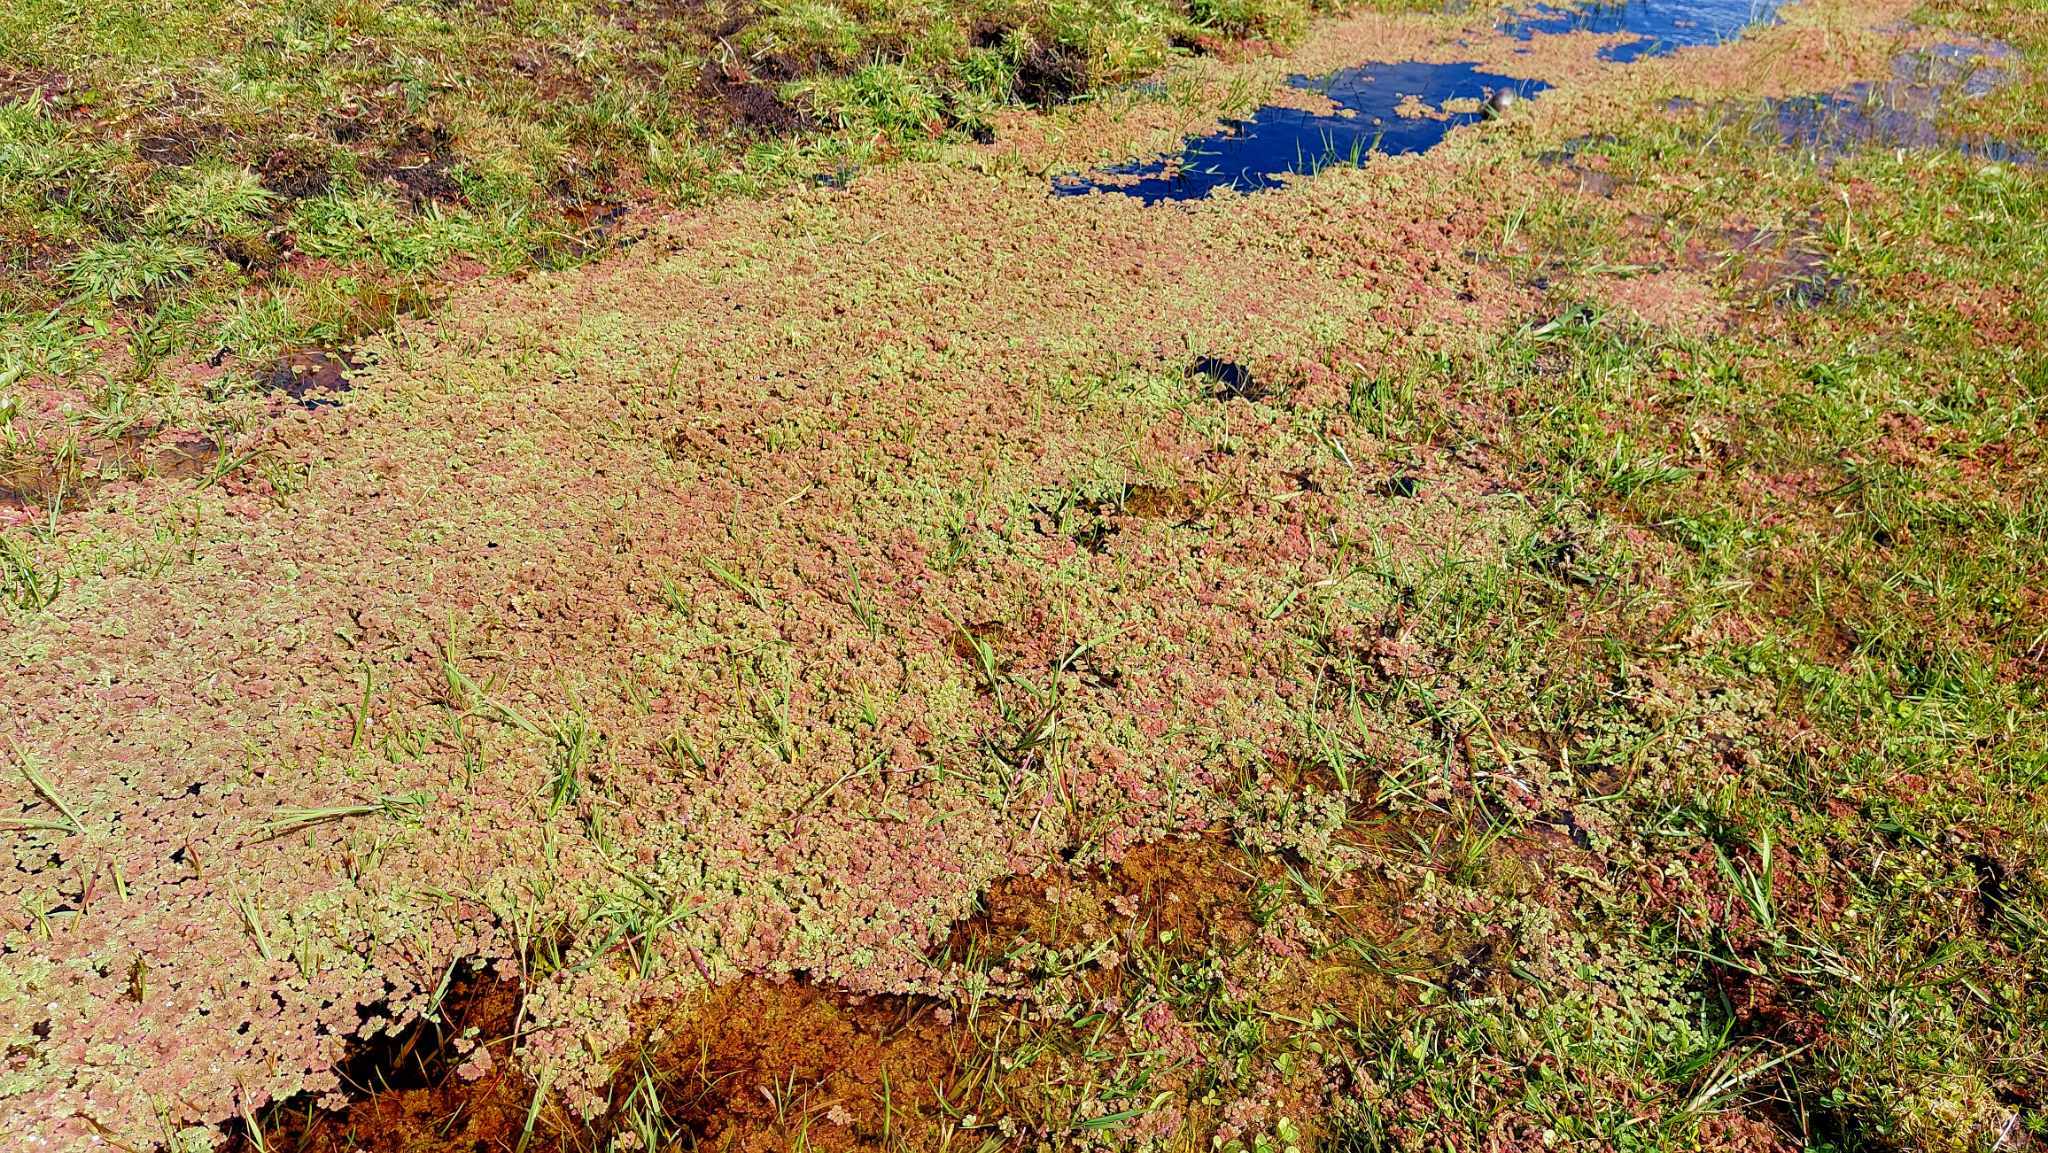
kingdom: Plantae
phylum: Tracheophyta
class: Polypodiopsida
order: Salviniales
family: Salviniaceae
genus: Azolla
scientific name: Azolla rubra
